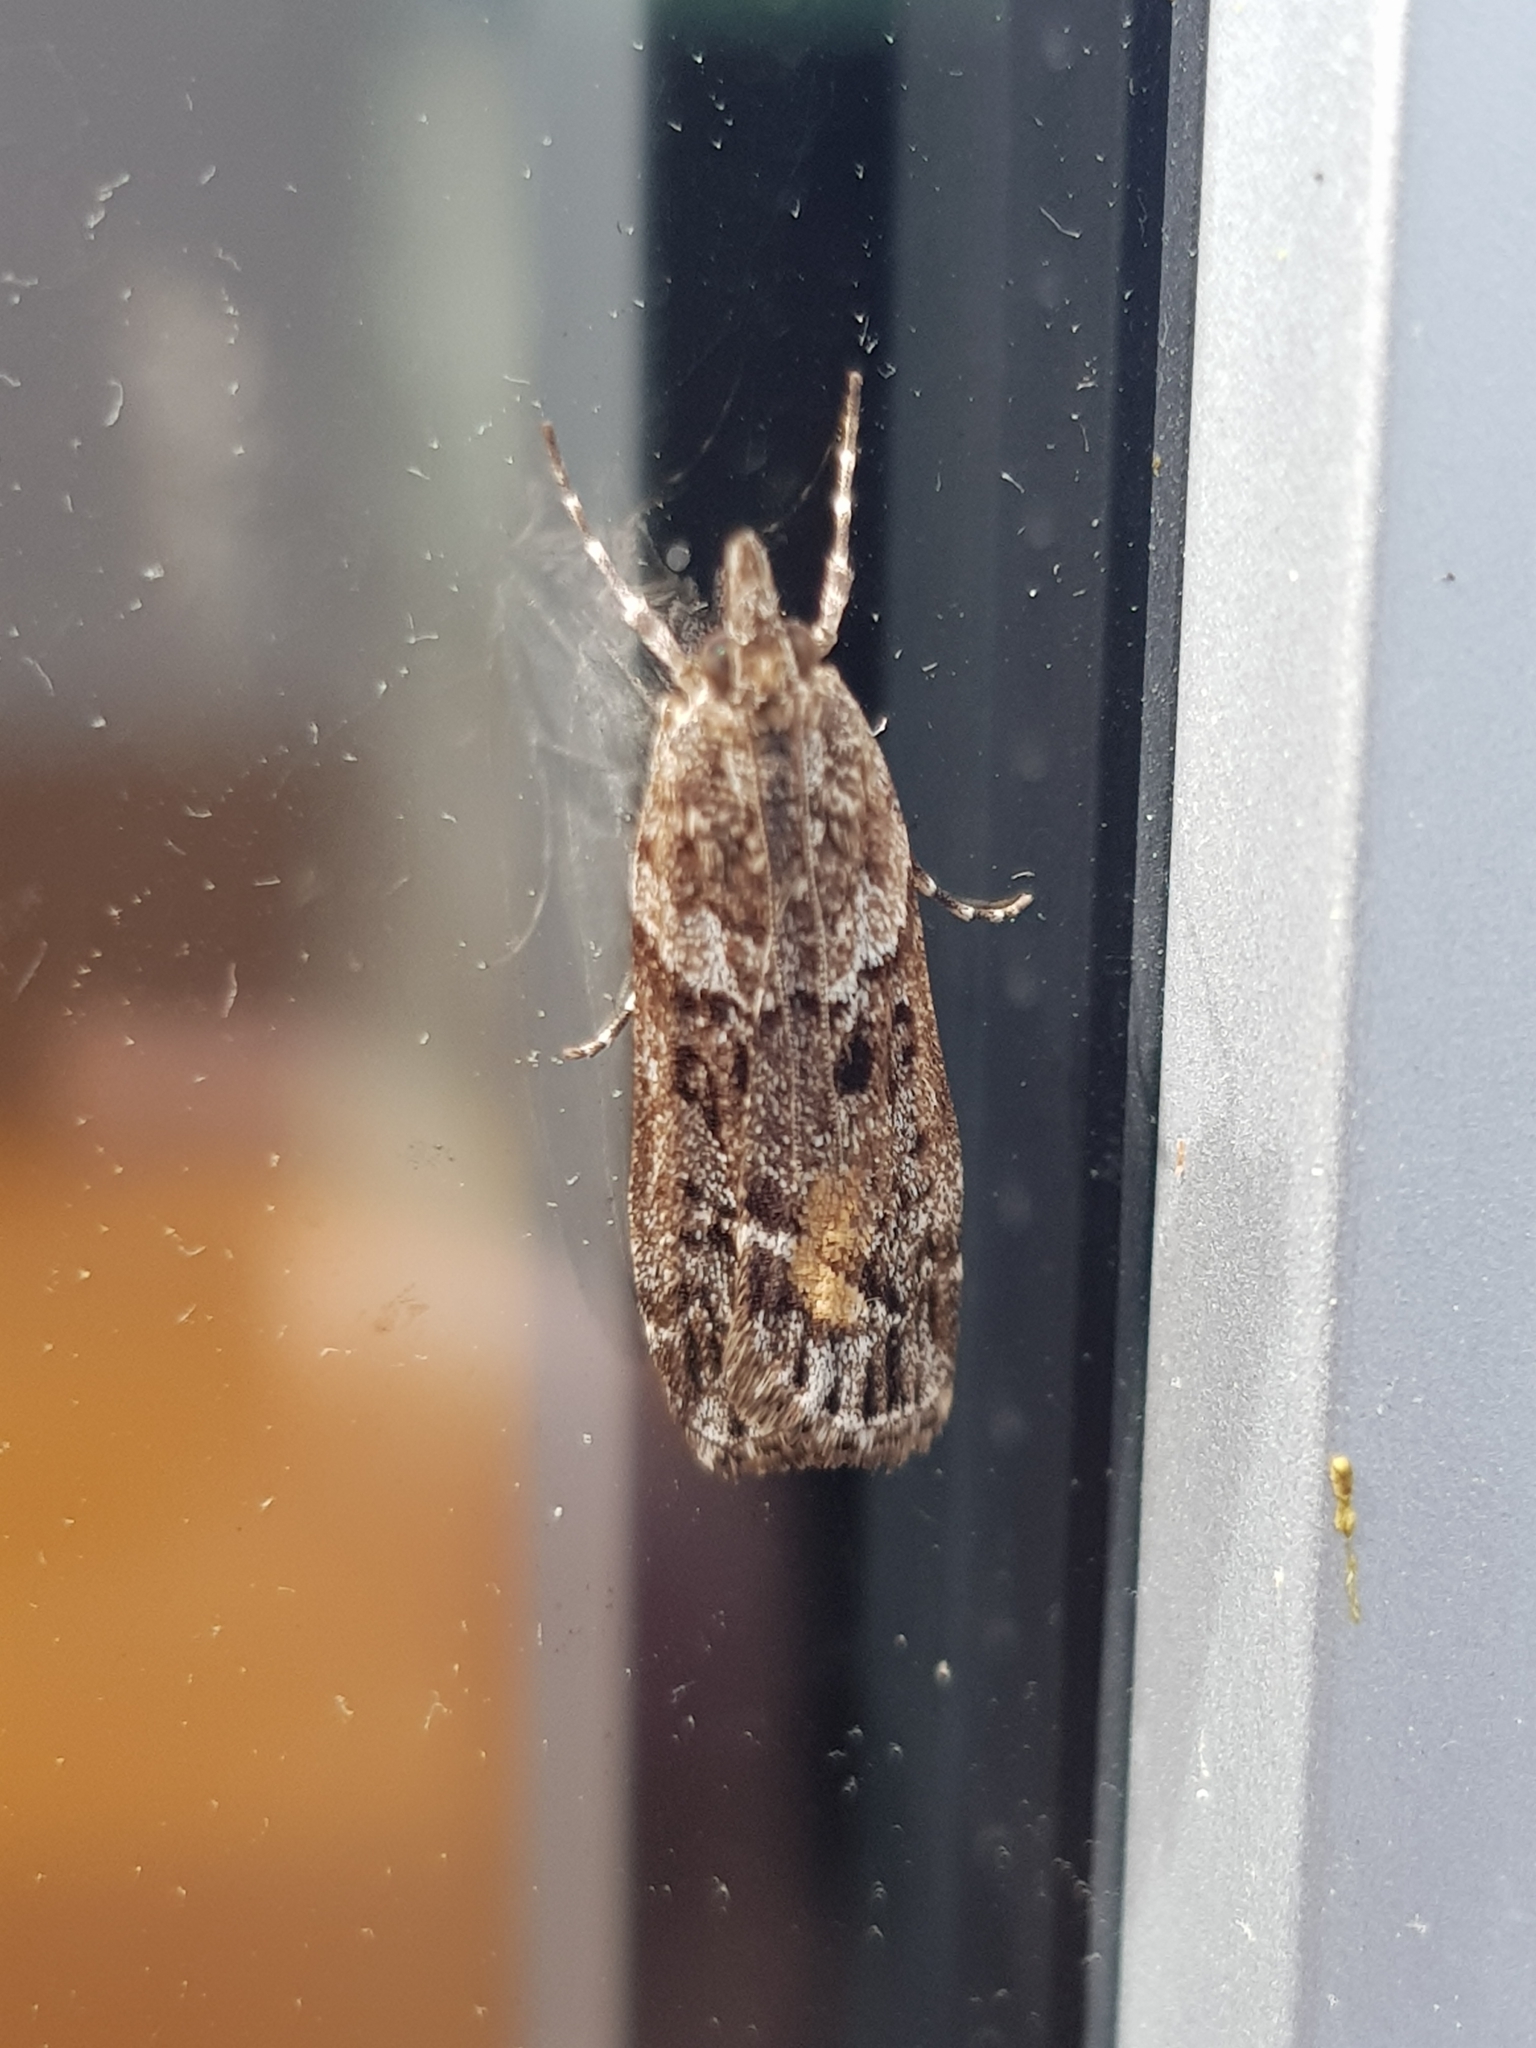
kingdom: Animalia
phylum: Arthropoda
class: Insecta
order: Lepidoptera
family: Crambidae
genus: Eudonia
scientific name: Eudonia submarginalis
